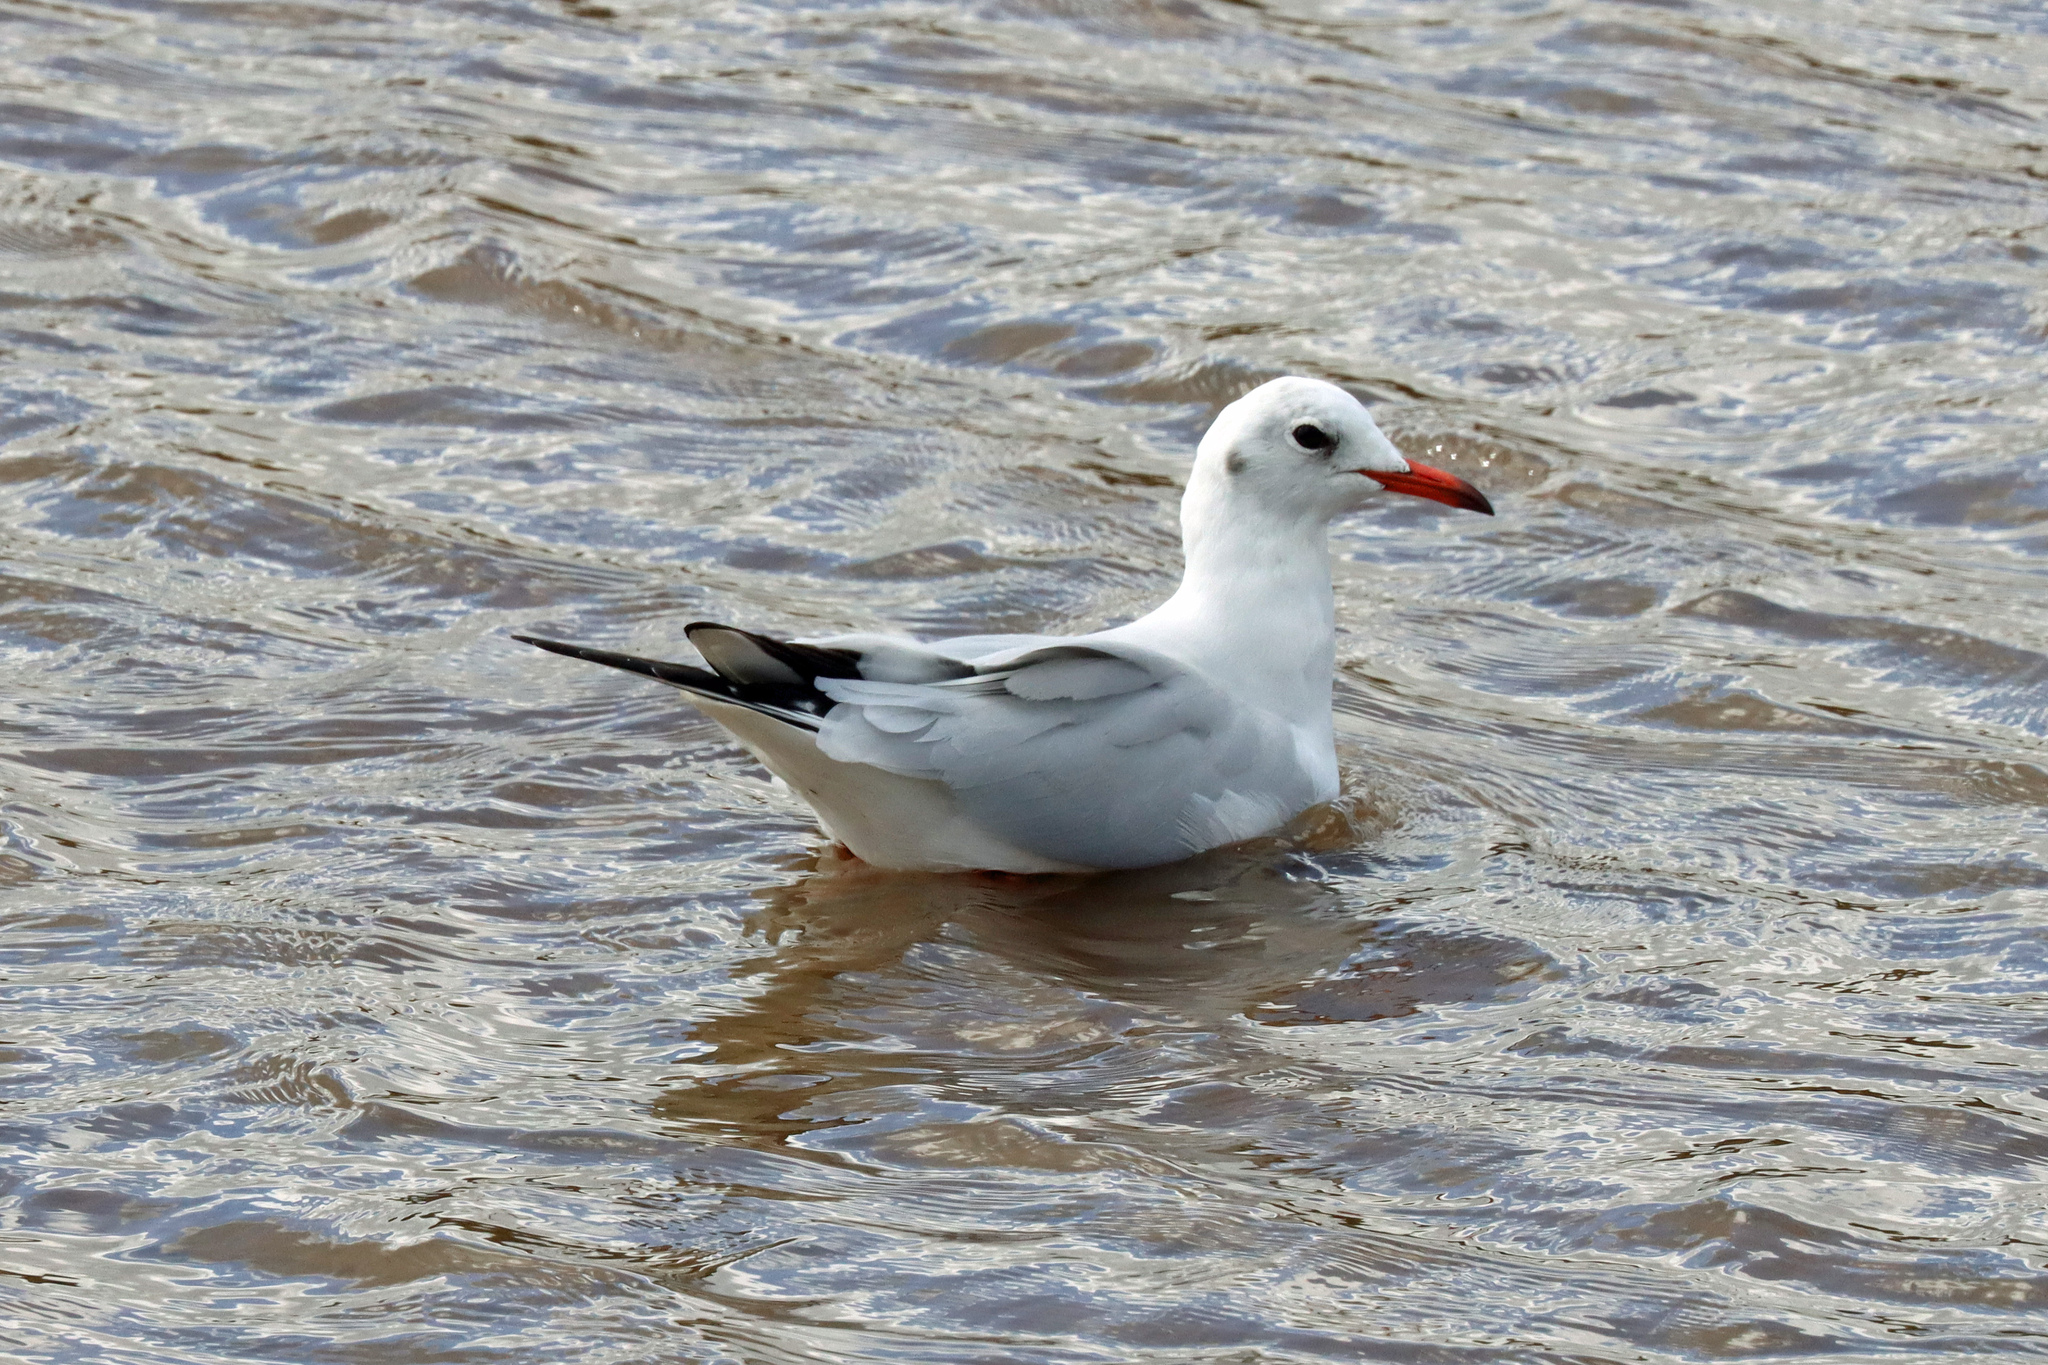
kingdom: Animalia
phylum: Chordata
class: Aves
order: Charadriiformes
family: Laridae
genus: Chroicocephalus
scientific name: Chroicocephalus ridibundus
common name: Black-headed gull
